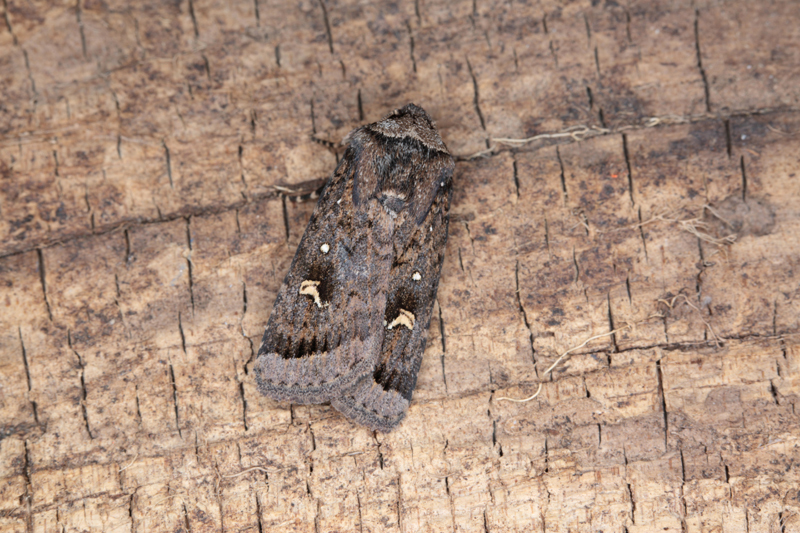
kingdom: Animalia
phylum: Arthropoda
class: Insecta
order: Lepidoptera
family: Noctuidae
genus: Proteuxoa
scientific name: Proteuxoa comma
